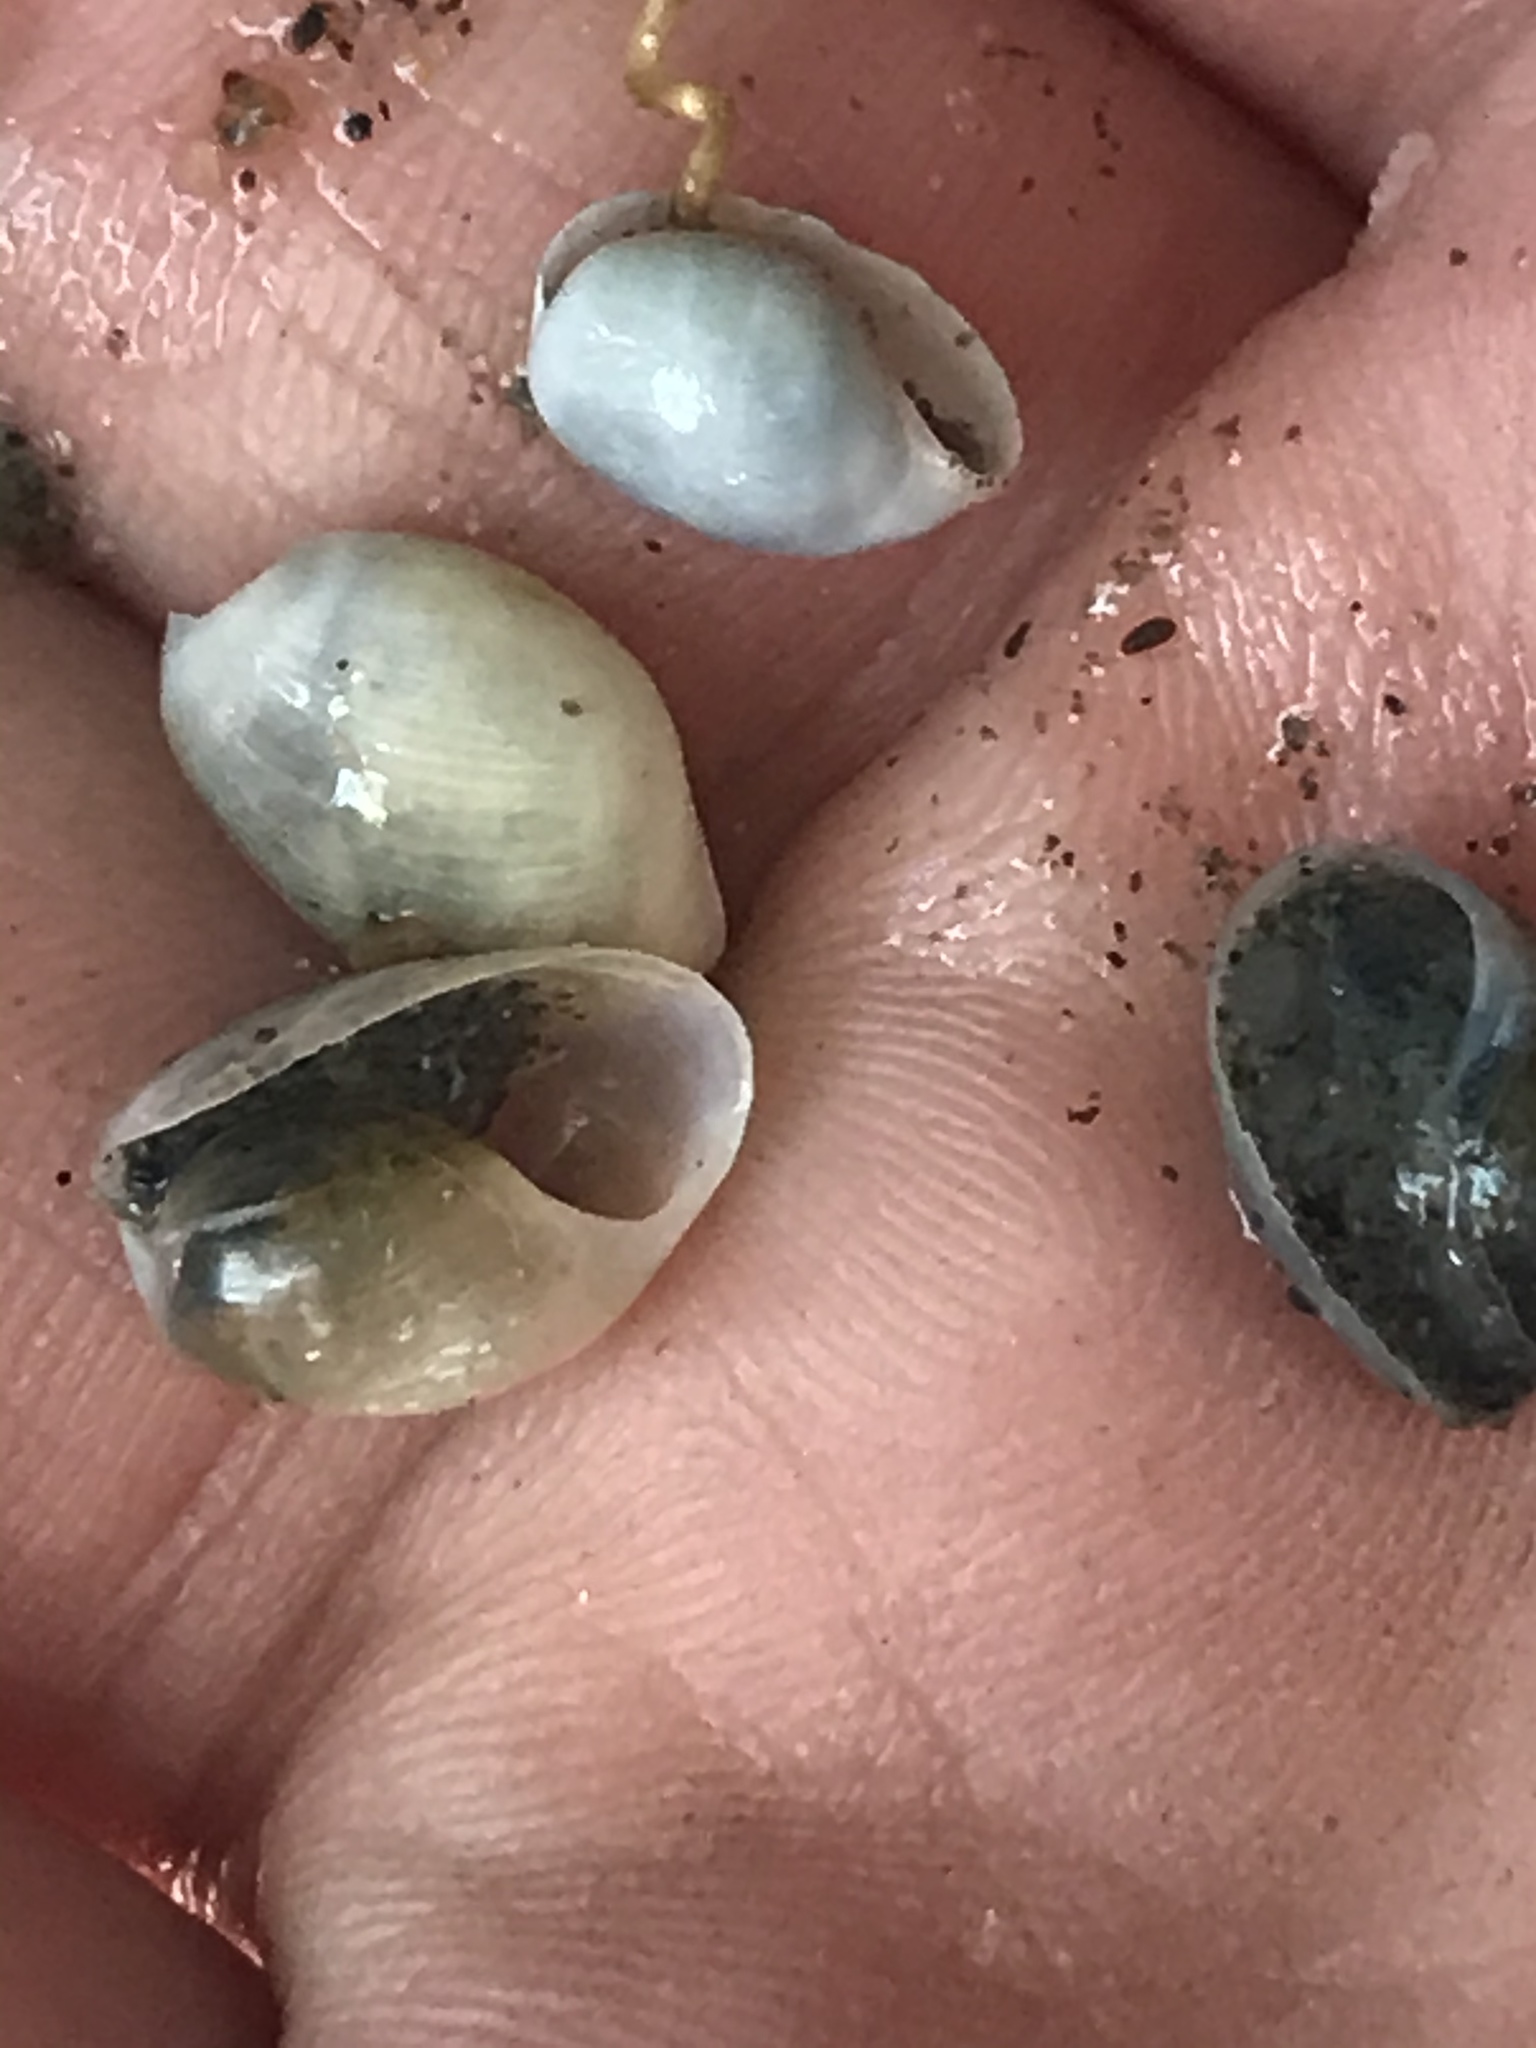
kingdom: Animalia
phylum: Mollusca
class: Gastropoda
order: Cephalaspidea
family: Haminoeidae
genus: Haloa
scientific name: Haloa japonica
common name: Japanese bubble snail
